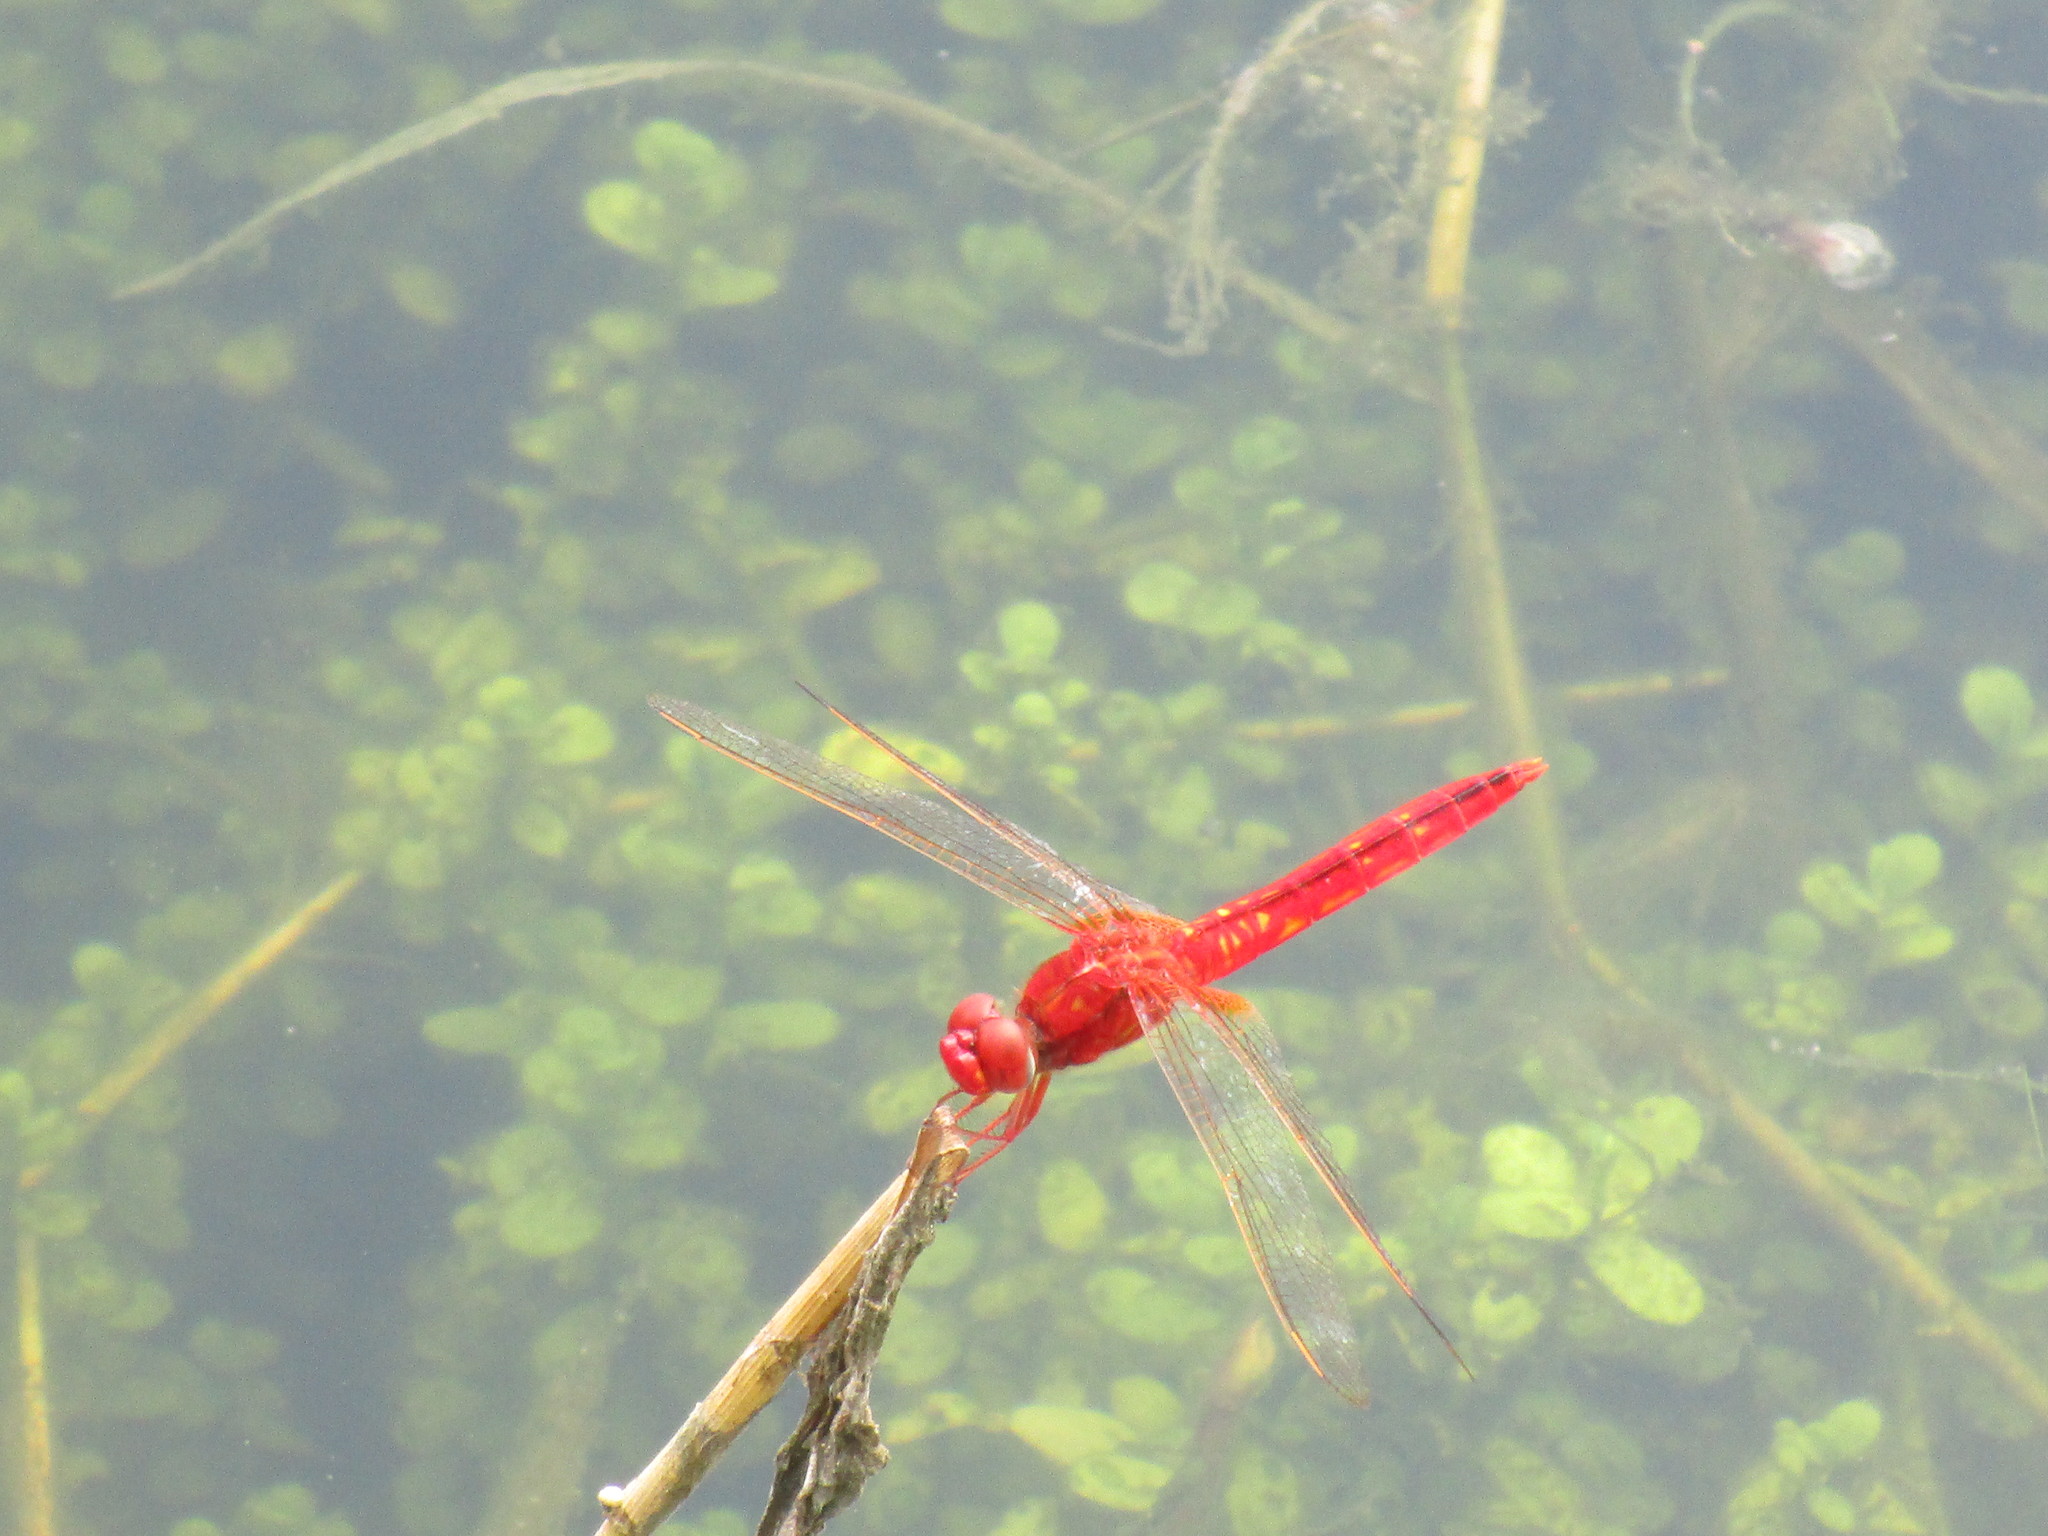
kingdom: Animalia
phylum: Arthropoda
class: Insecta
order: Odonata
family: Libellulidae
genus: Crocothemis
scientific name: Crocothemis servilia
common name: Scarlet skimmer
